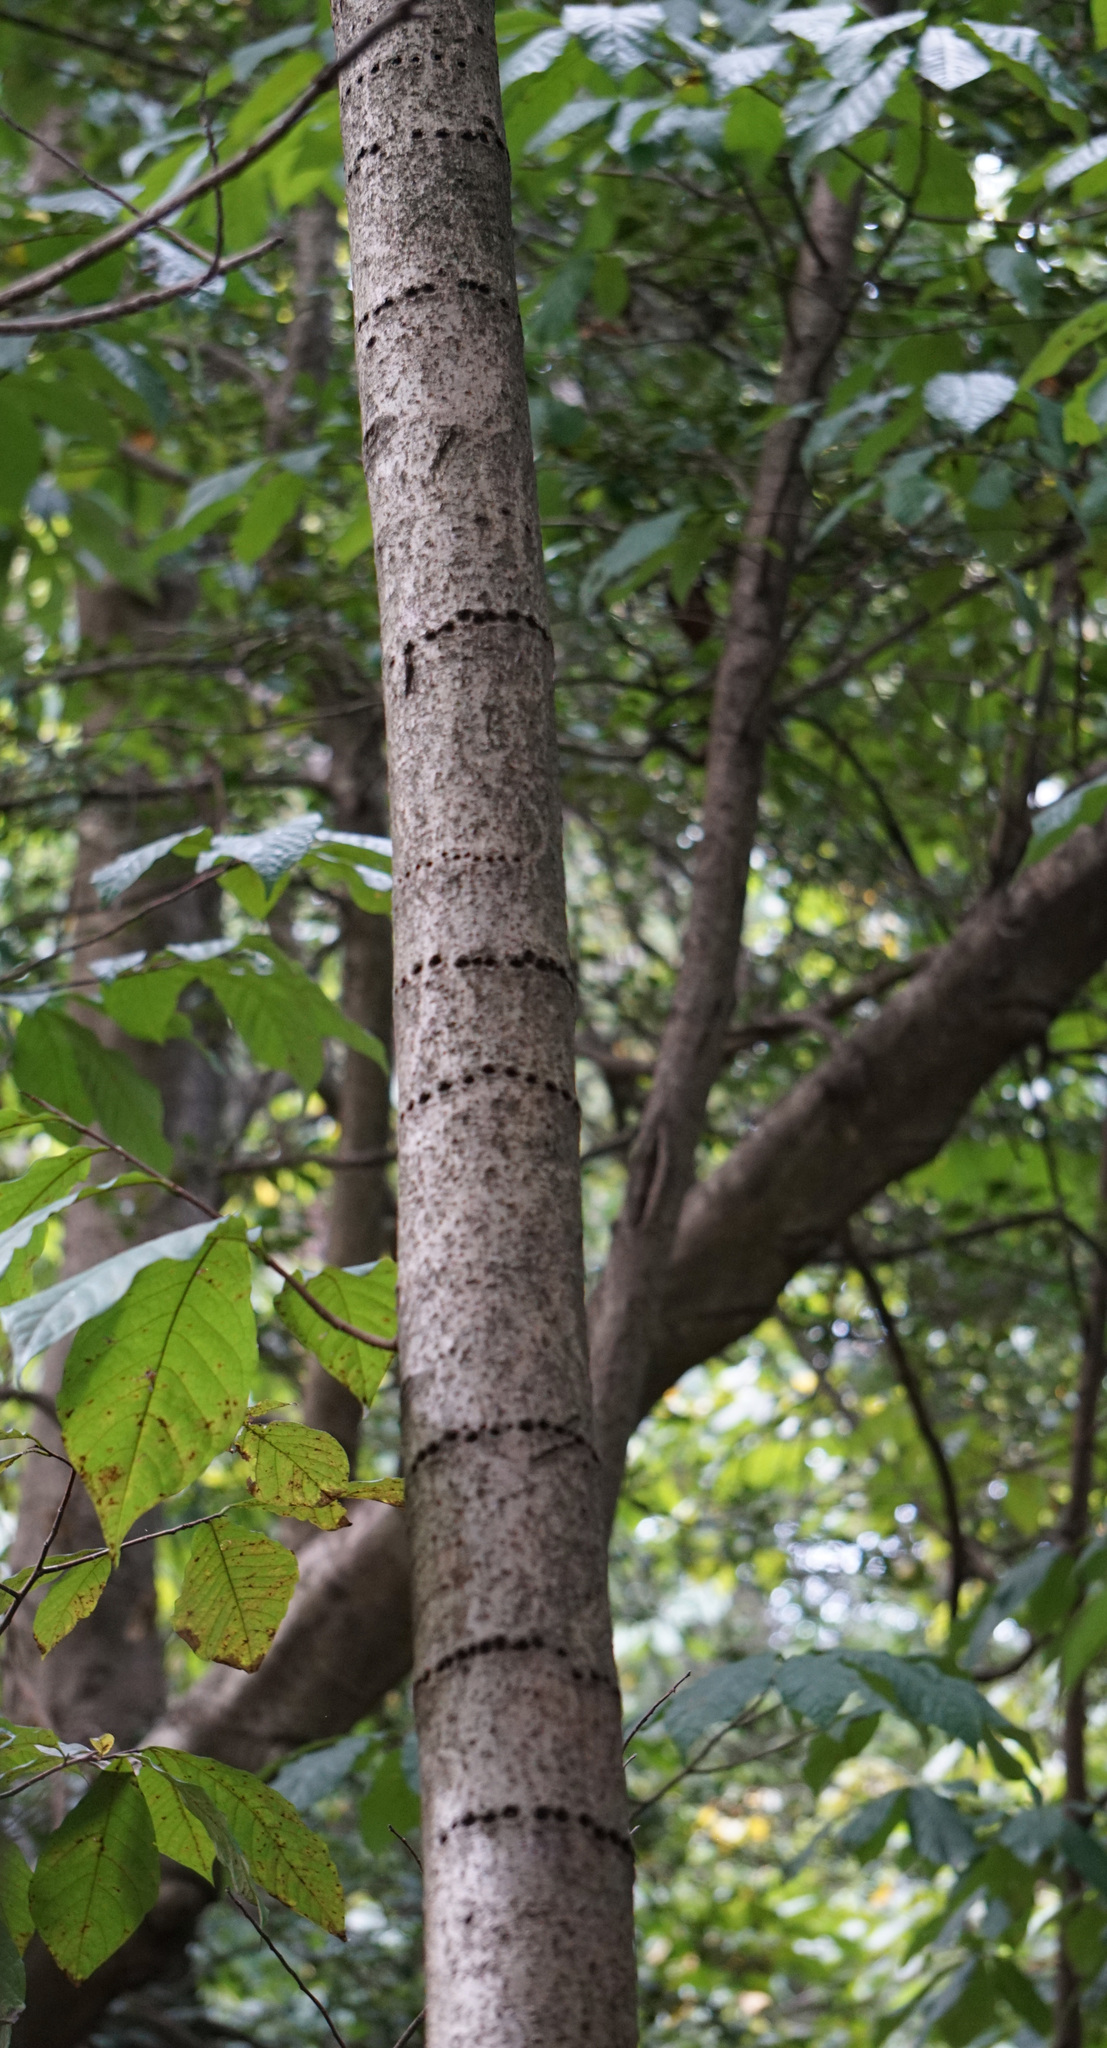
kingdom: Animalia
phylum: Chordata
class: Aves
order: Piciformes
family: Picidae
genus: Sphyrapicus
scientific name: Sphyrapicus varius
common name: Yellow-bellied sapsucker
